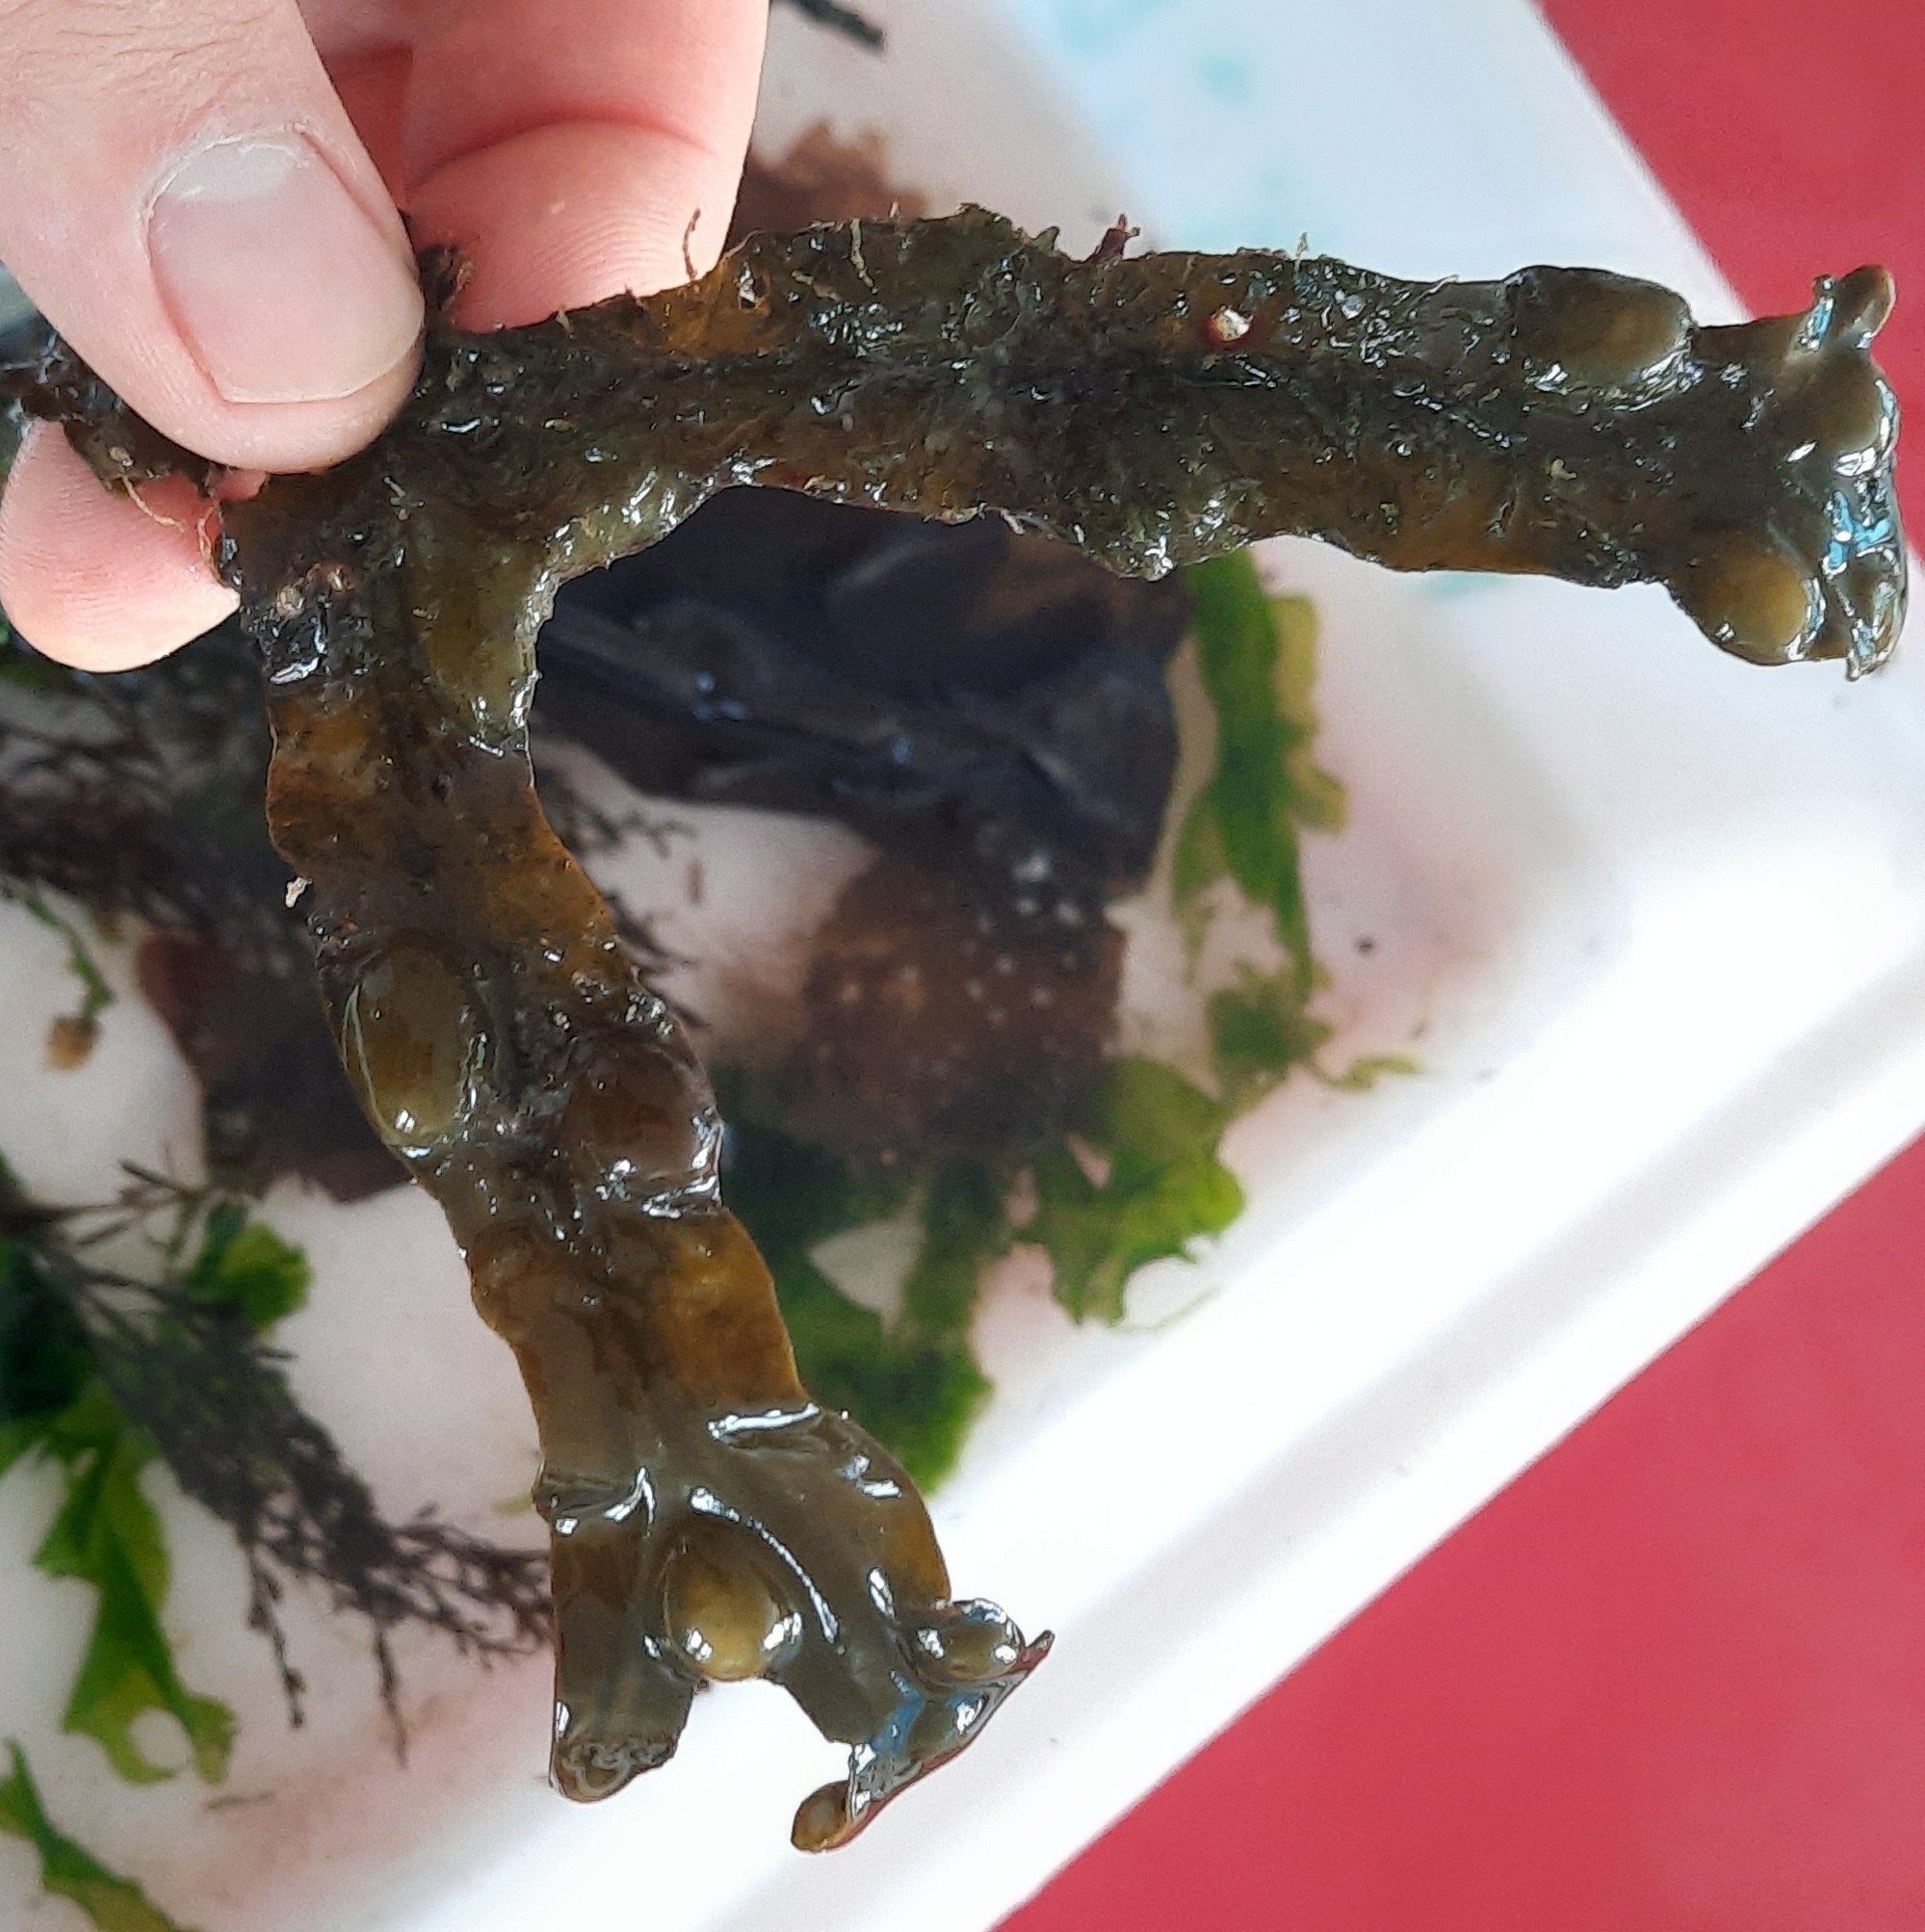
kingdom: Chromista
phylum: Ochrophyta
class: Phaeophyceae
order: Fucales
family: Fucaceae
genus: Fucus
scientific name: Fucus vesiculosus
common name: Bladder wrack
